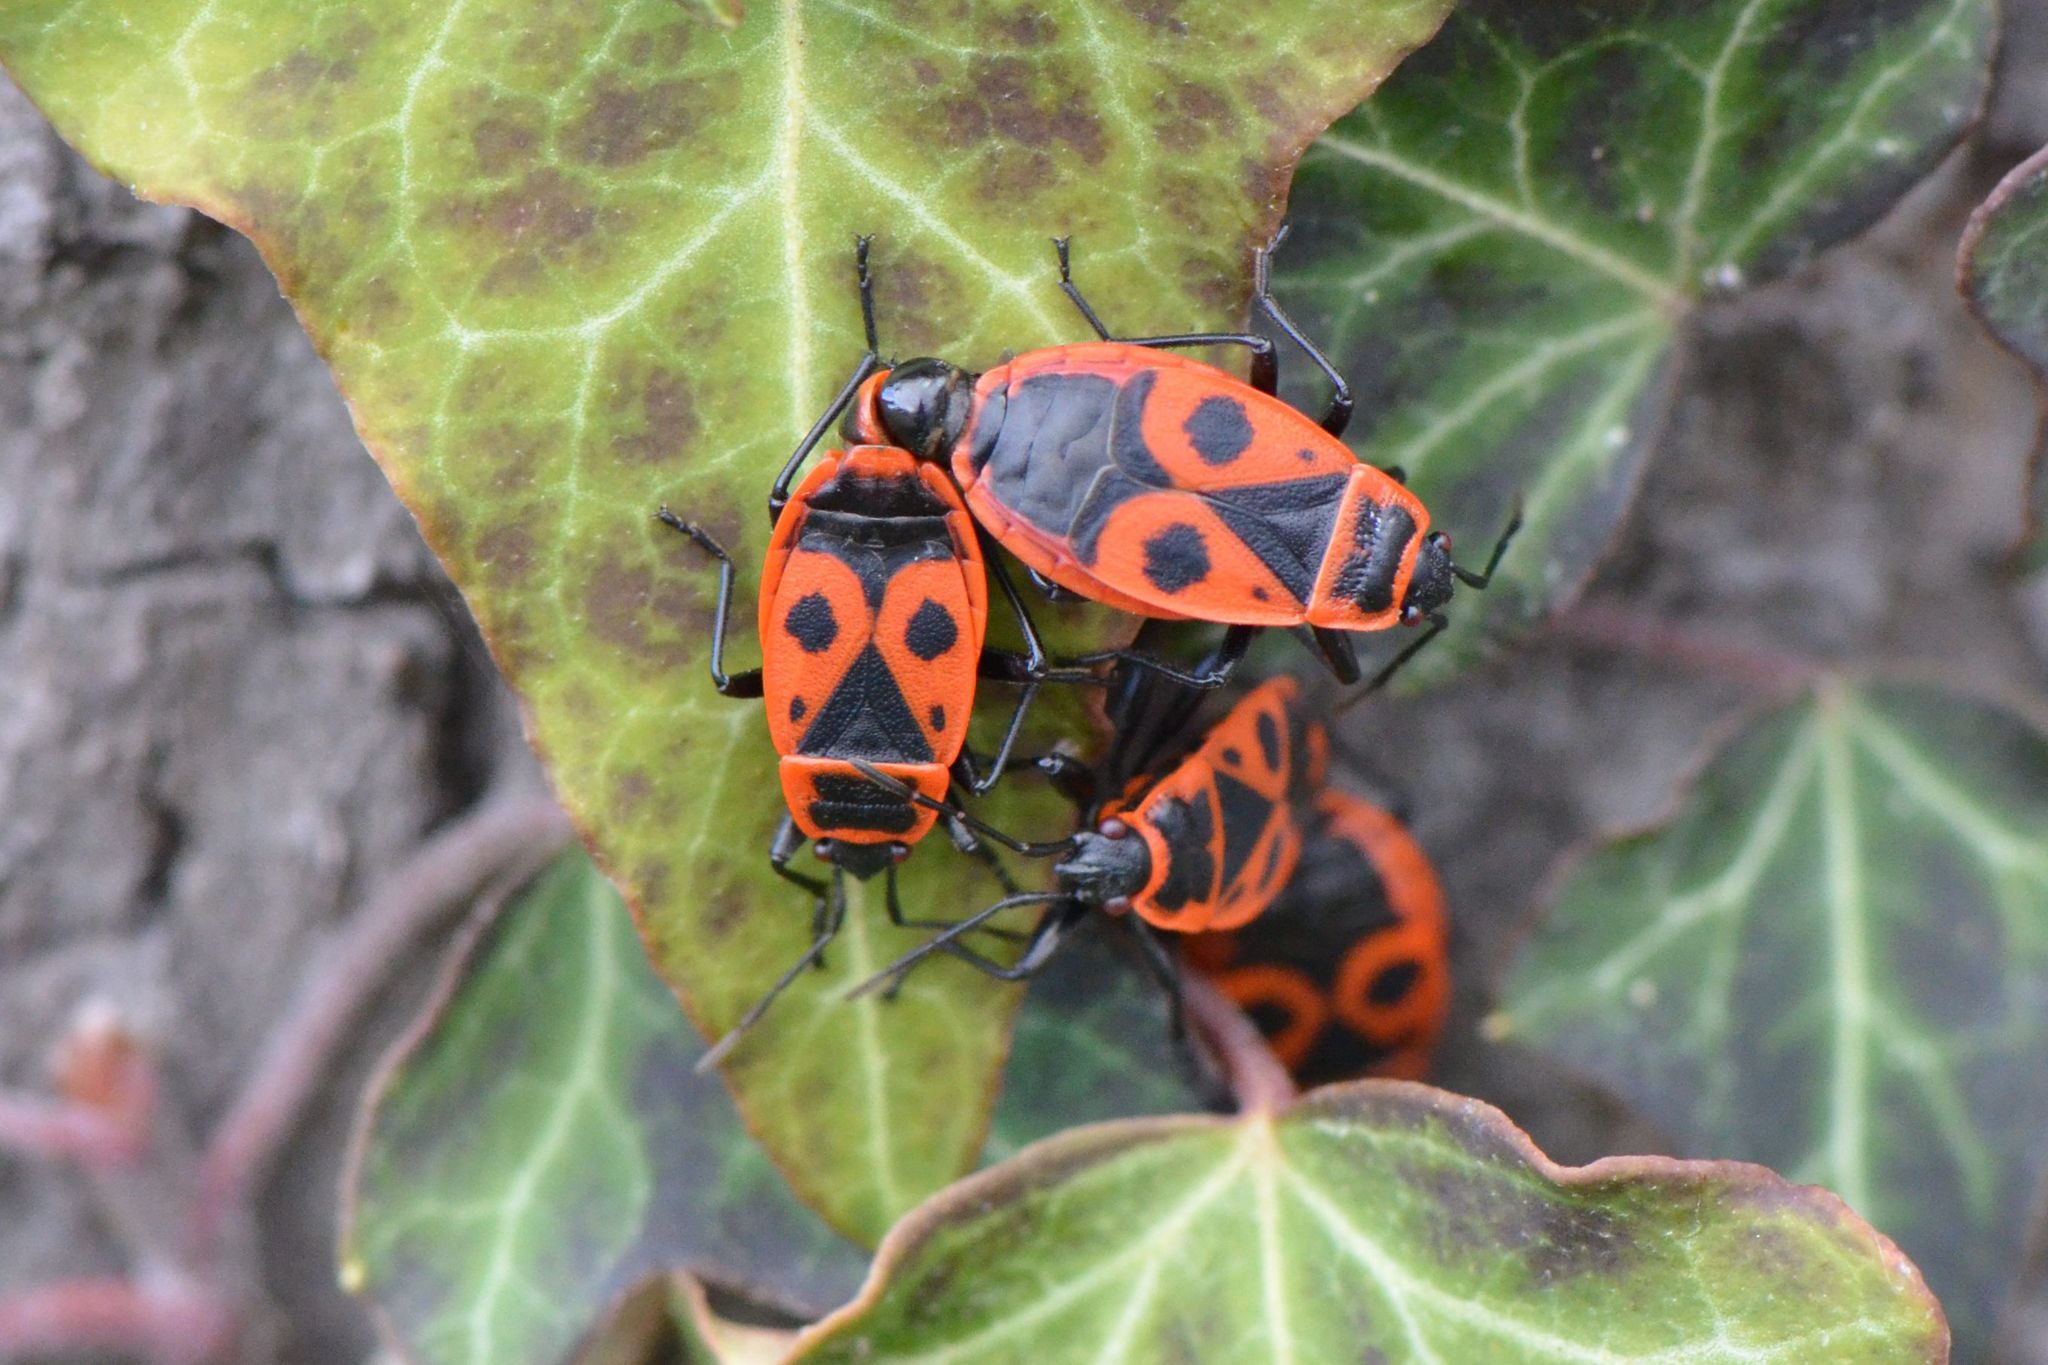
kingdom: Animalia
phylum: Arthropoda
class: Insecta
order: Hemiptera
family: Pyrrhocoridae
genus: Pyrrhocoris
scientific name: Pyrrhocoris apterus
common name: Firebug
